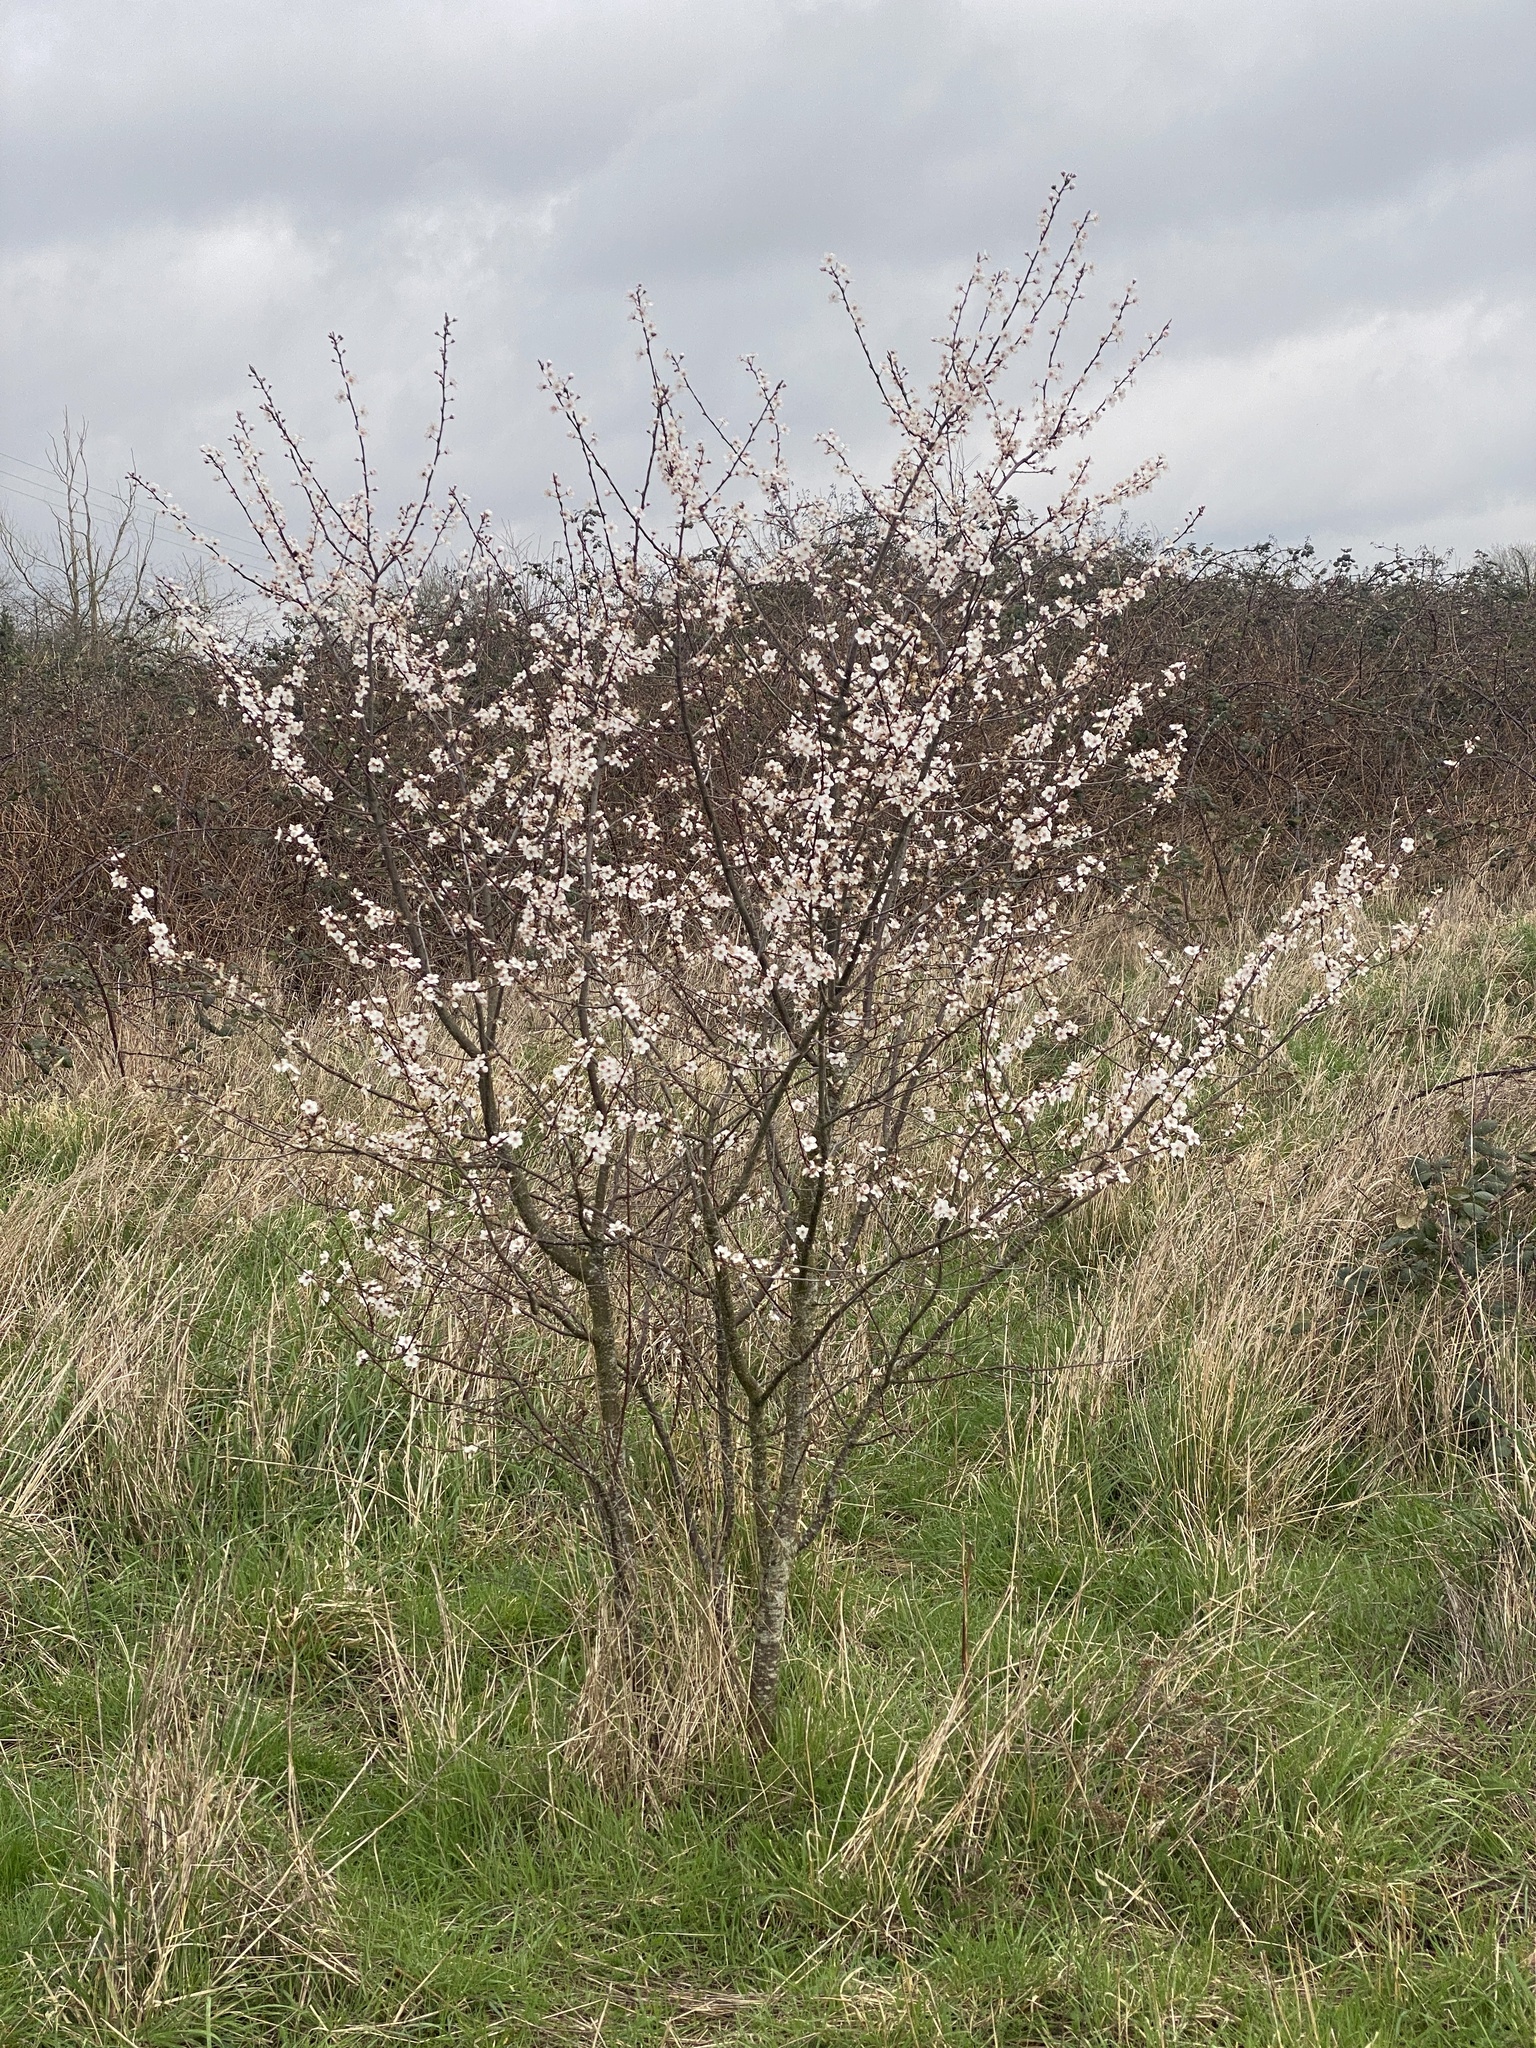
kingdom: Plantae
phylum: Tracheophyta
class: Magnoliopsida
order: Rosales
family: Rosaceae
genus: Prunus
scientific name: Prunus cerasifera
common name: Cherry plum
